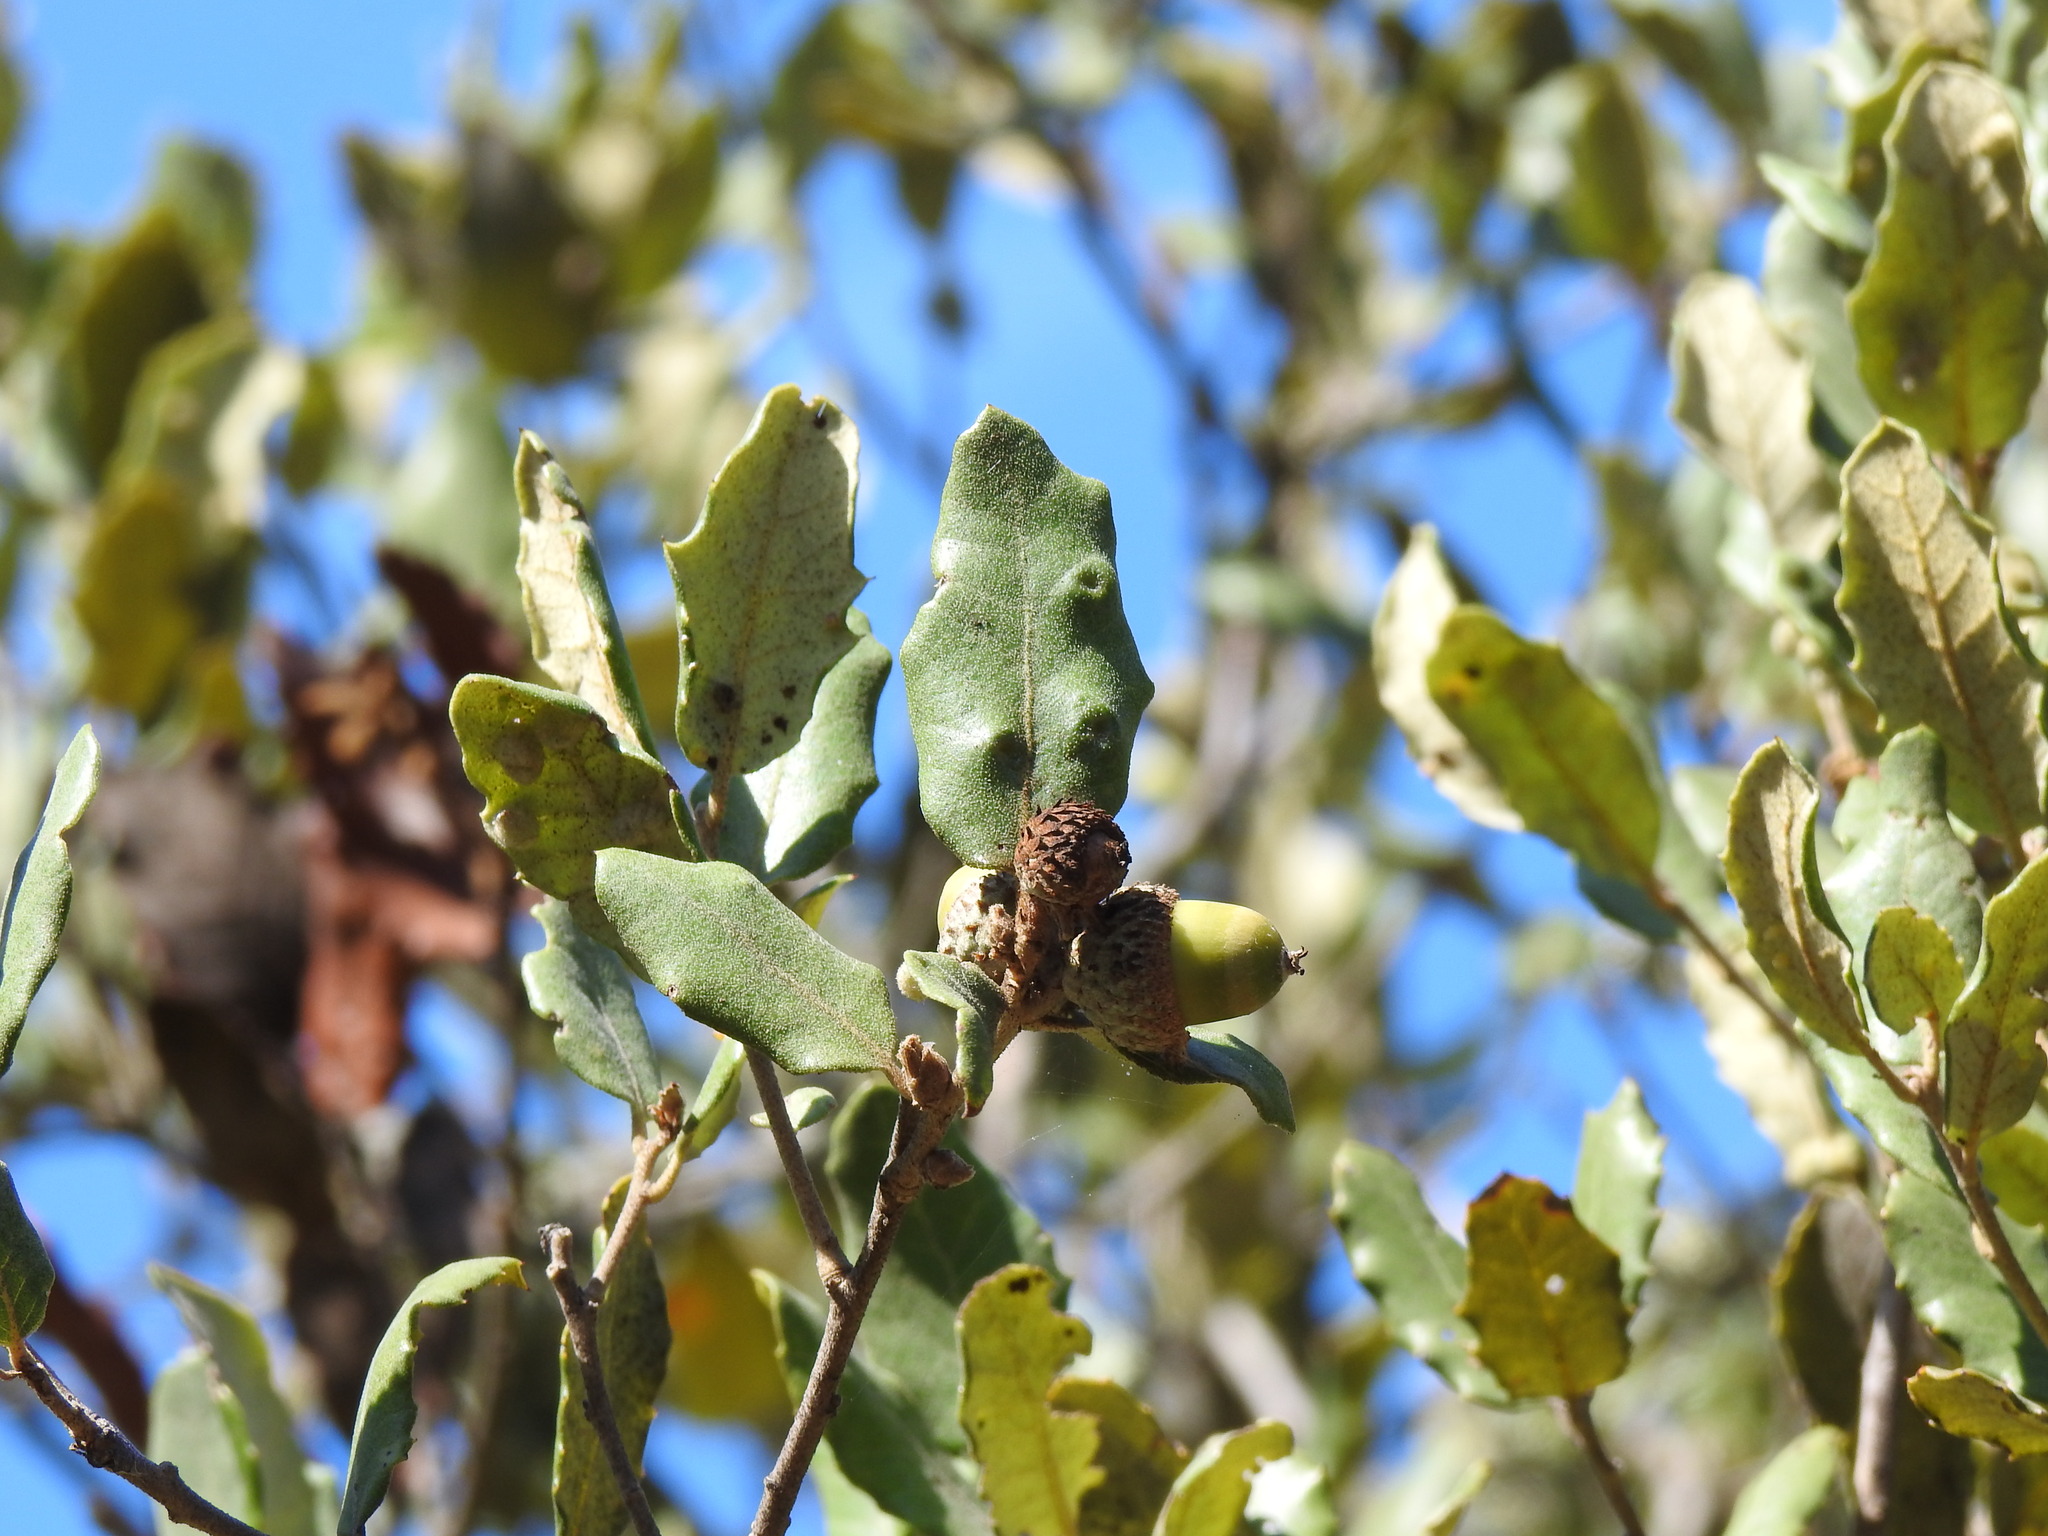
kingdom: Plantae
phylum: Tracheophyta
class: Magnoliopsida
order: Fagales
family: Fagaceae
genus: Quercus
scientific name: Quercus rotundifolia
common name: Holm oak
